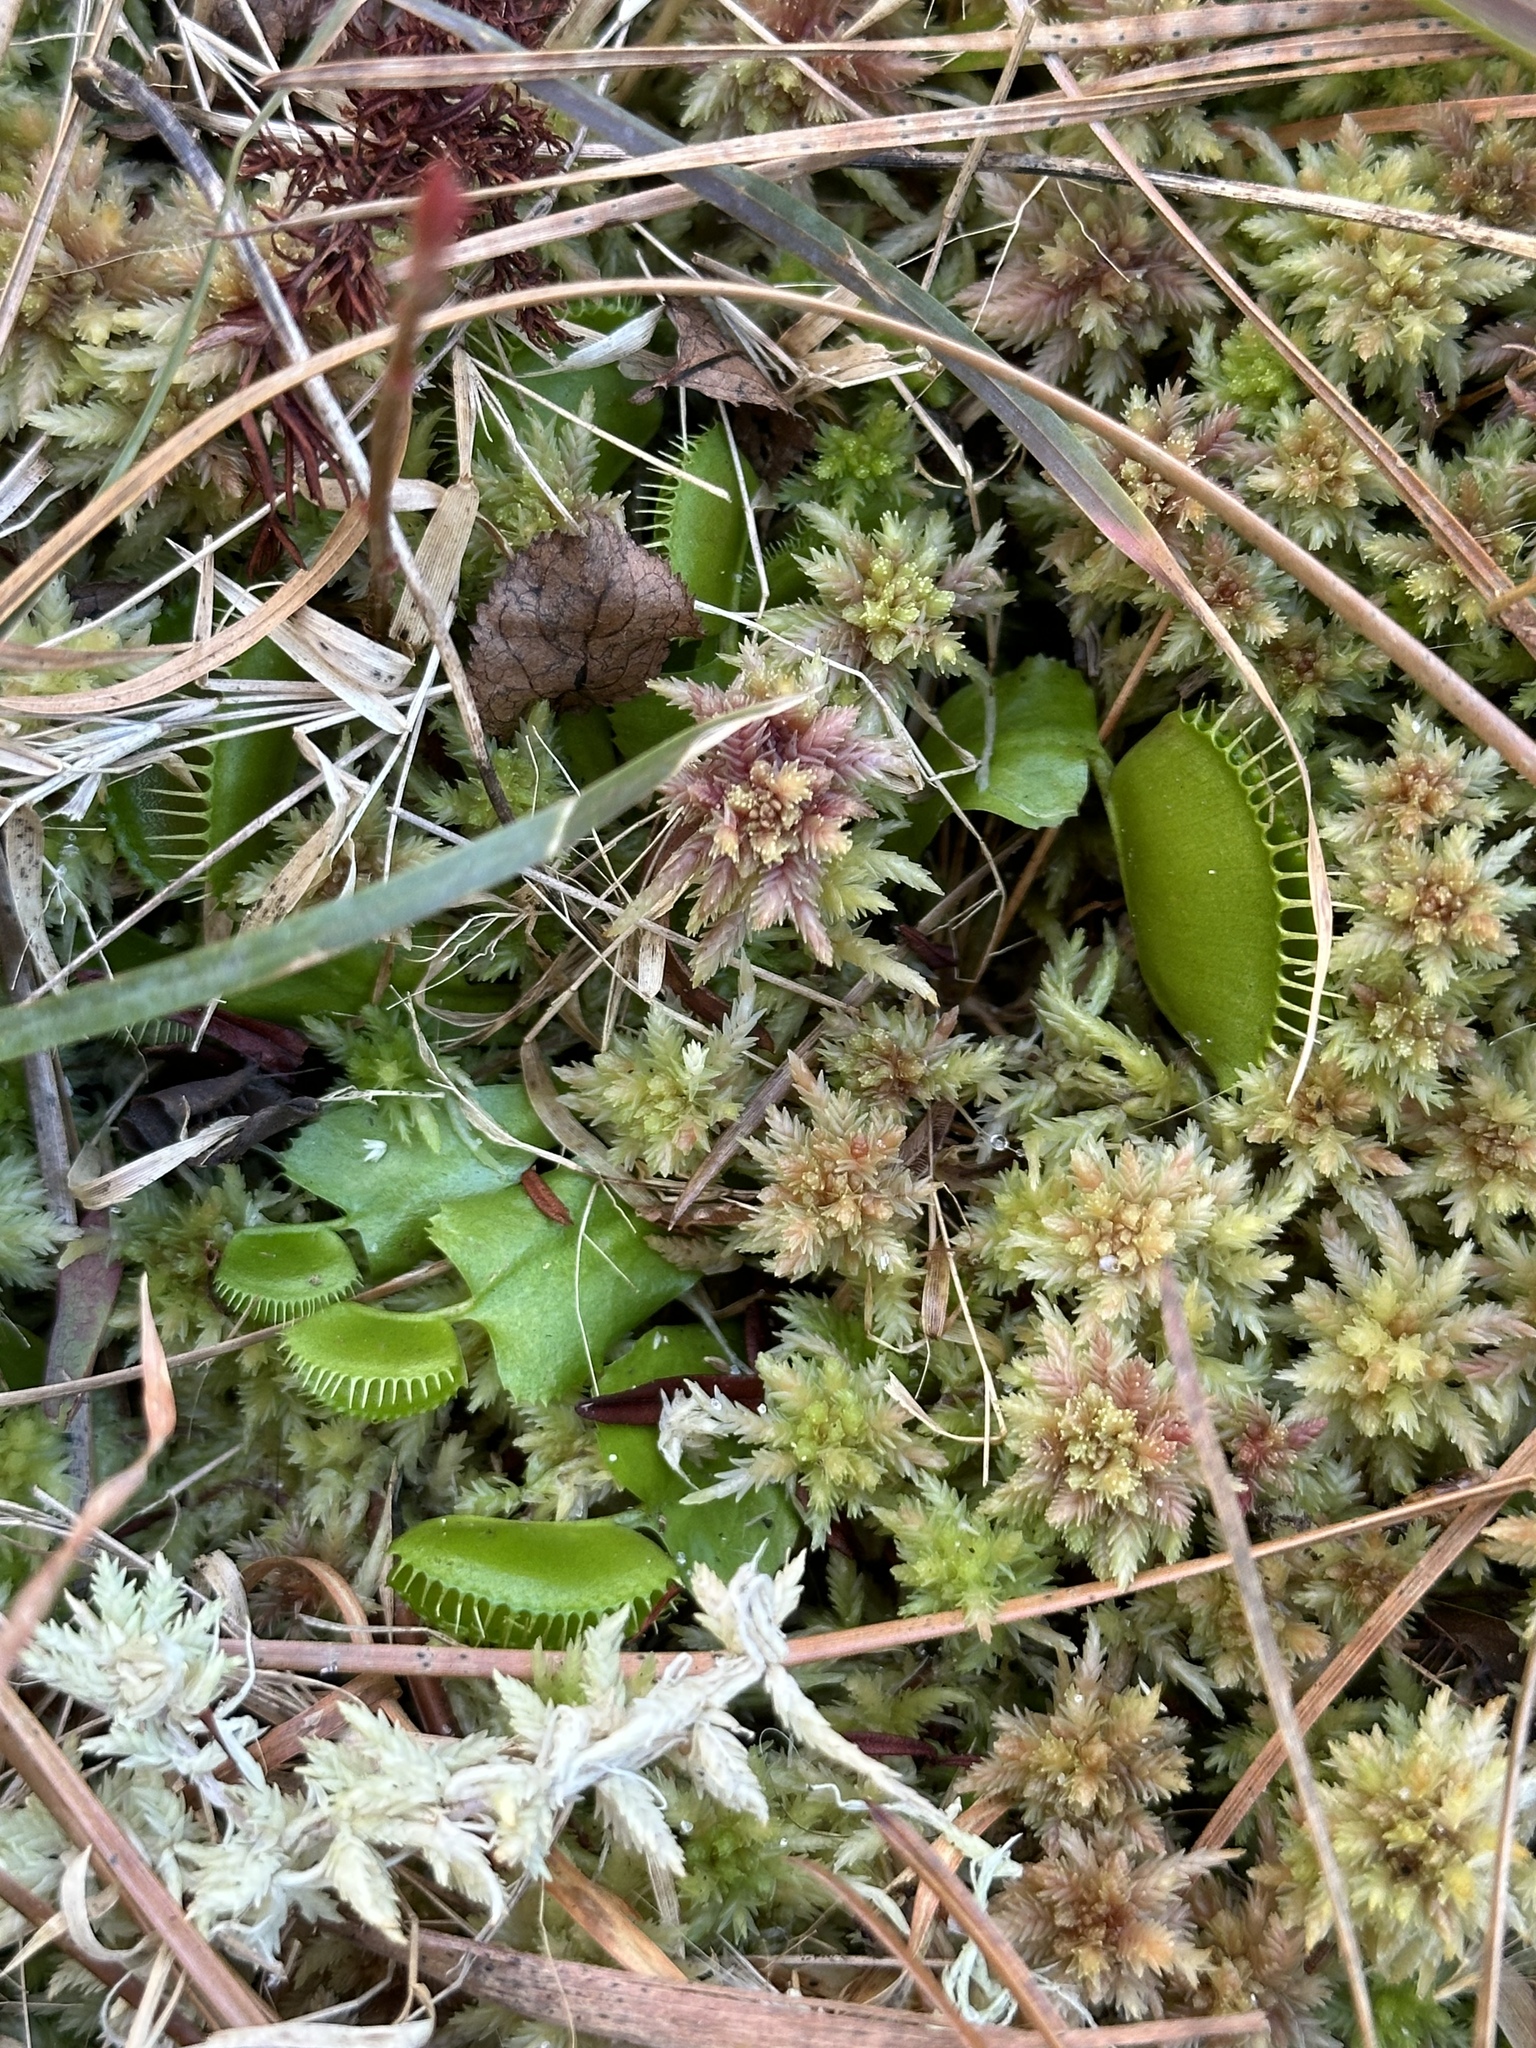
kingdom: Plantae
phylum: Tracheophyta
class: Magnoliopsida
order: Caryophyllales
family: Droseraceae
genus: Dionaea
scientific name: Dionaea muscipula
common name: Venus flytrap
